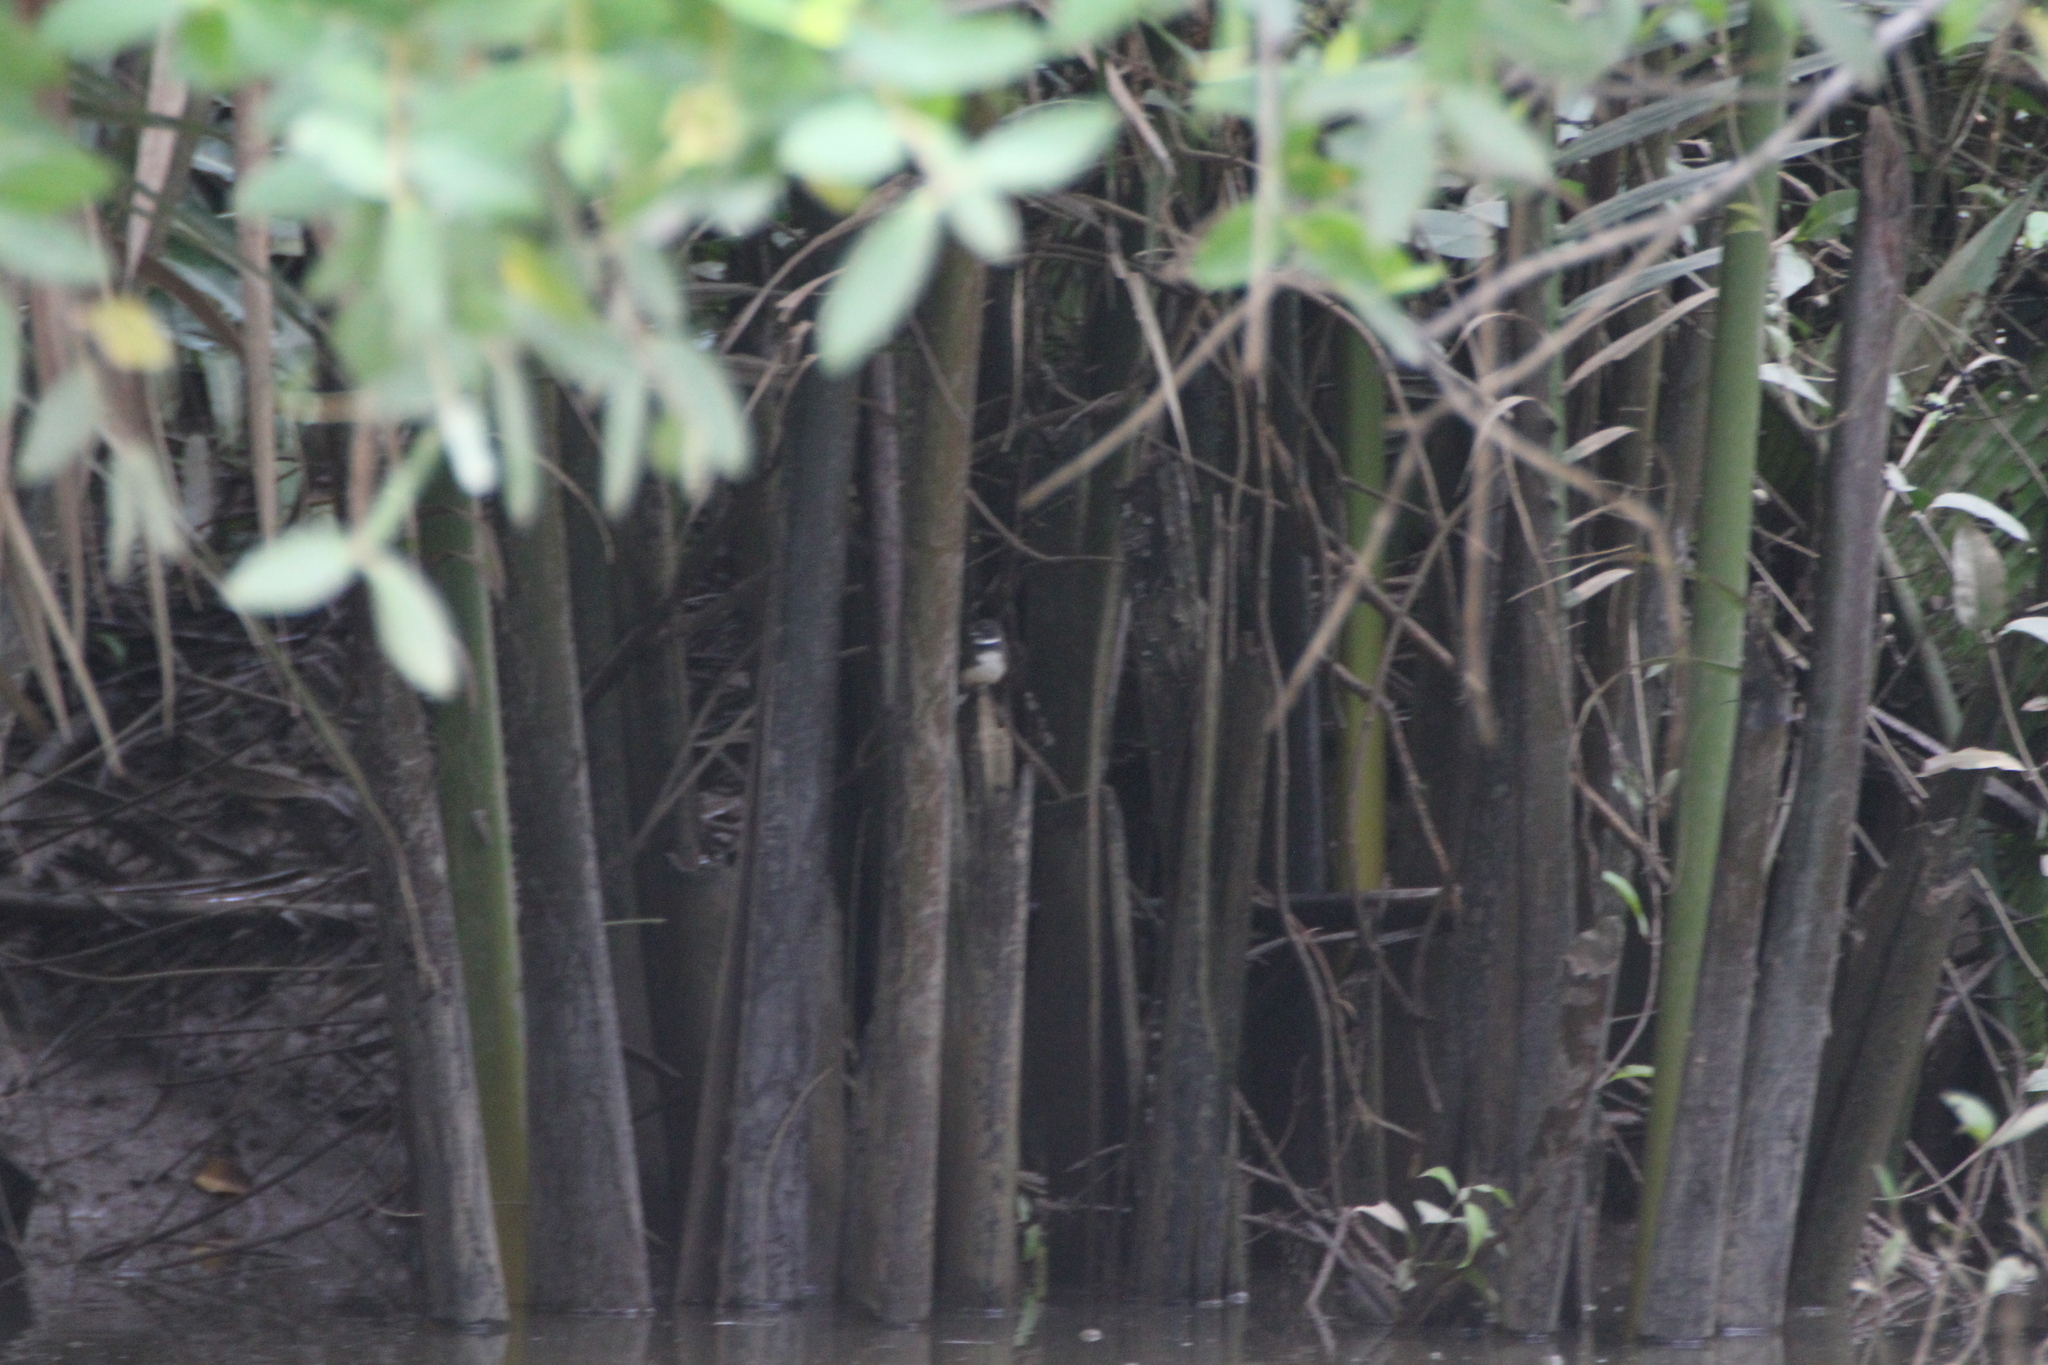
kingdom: Animalia
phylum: Chordata
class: Aves
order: Passeriformes
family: Rhipiduridae
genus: Rhipidura
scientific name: Rhipidura javanica
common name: Pied fantail
